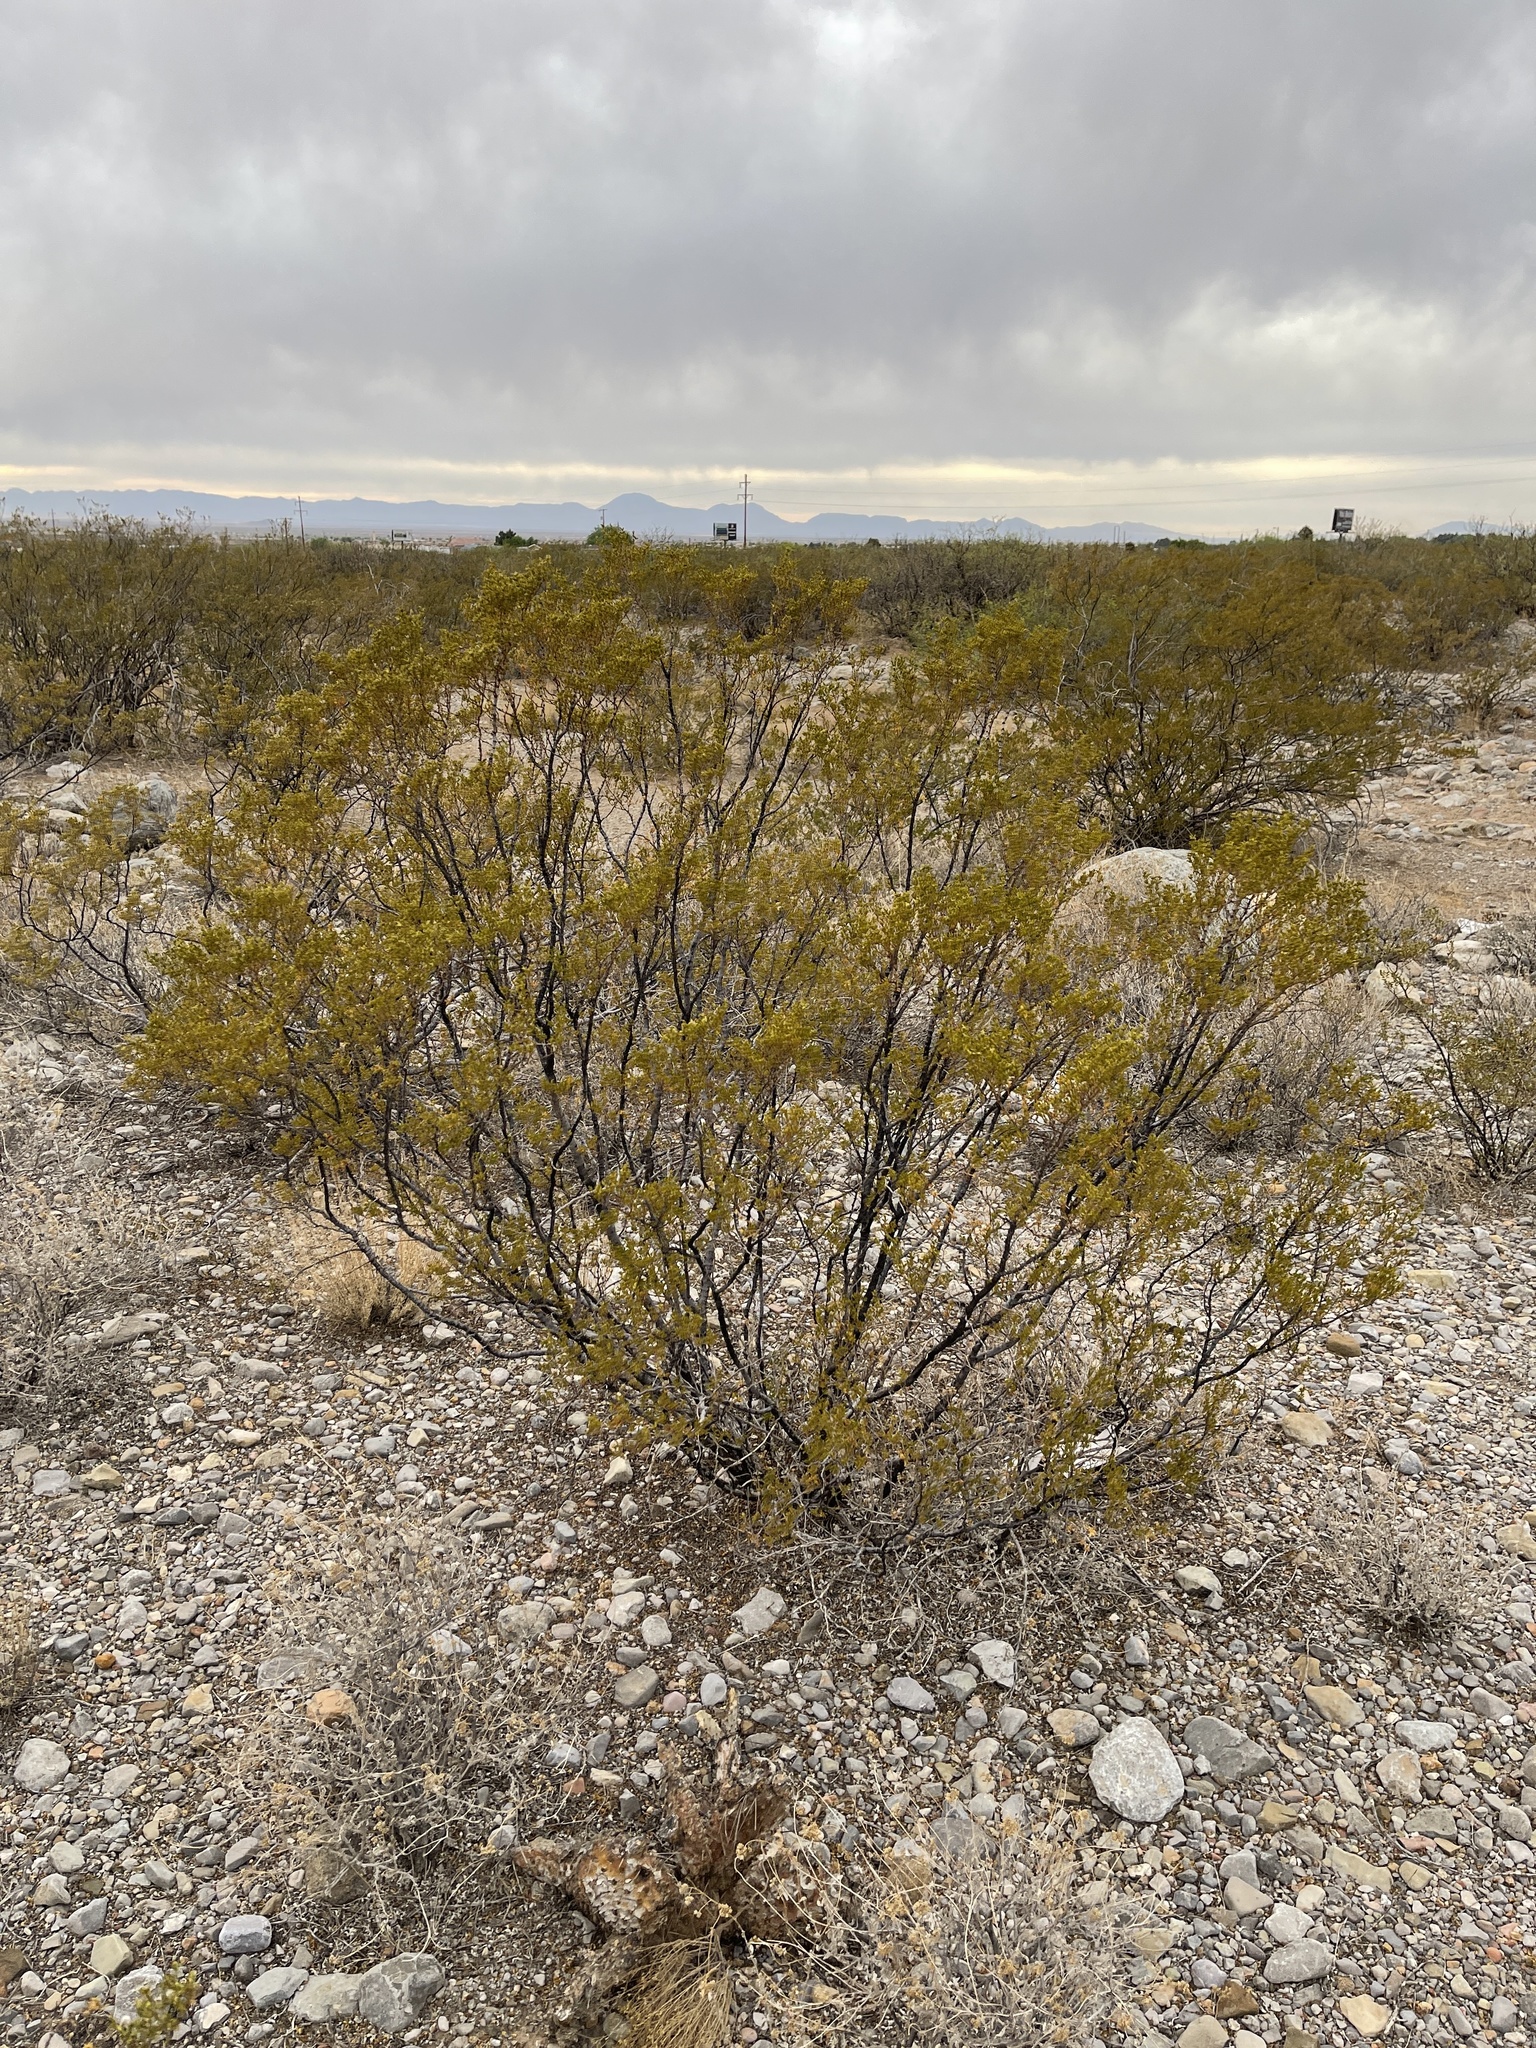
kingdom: Plantae
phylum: Tracheophyta
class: Magnoliopsida
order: Zygophyllales
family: Zygophyllaceae
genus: Larrea
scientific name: Larrea tridentata
